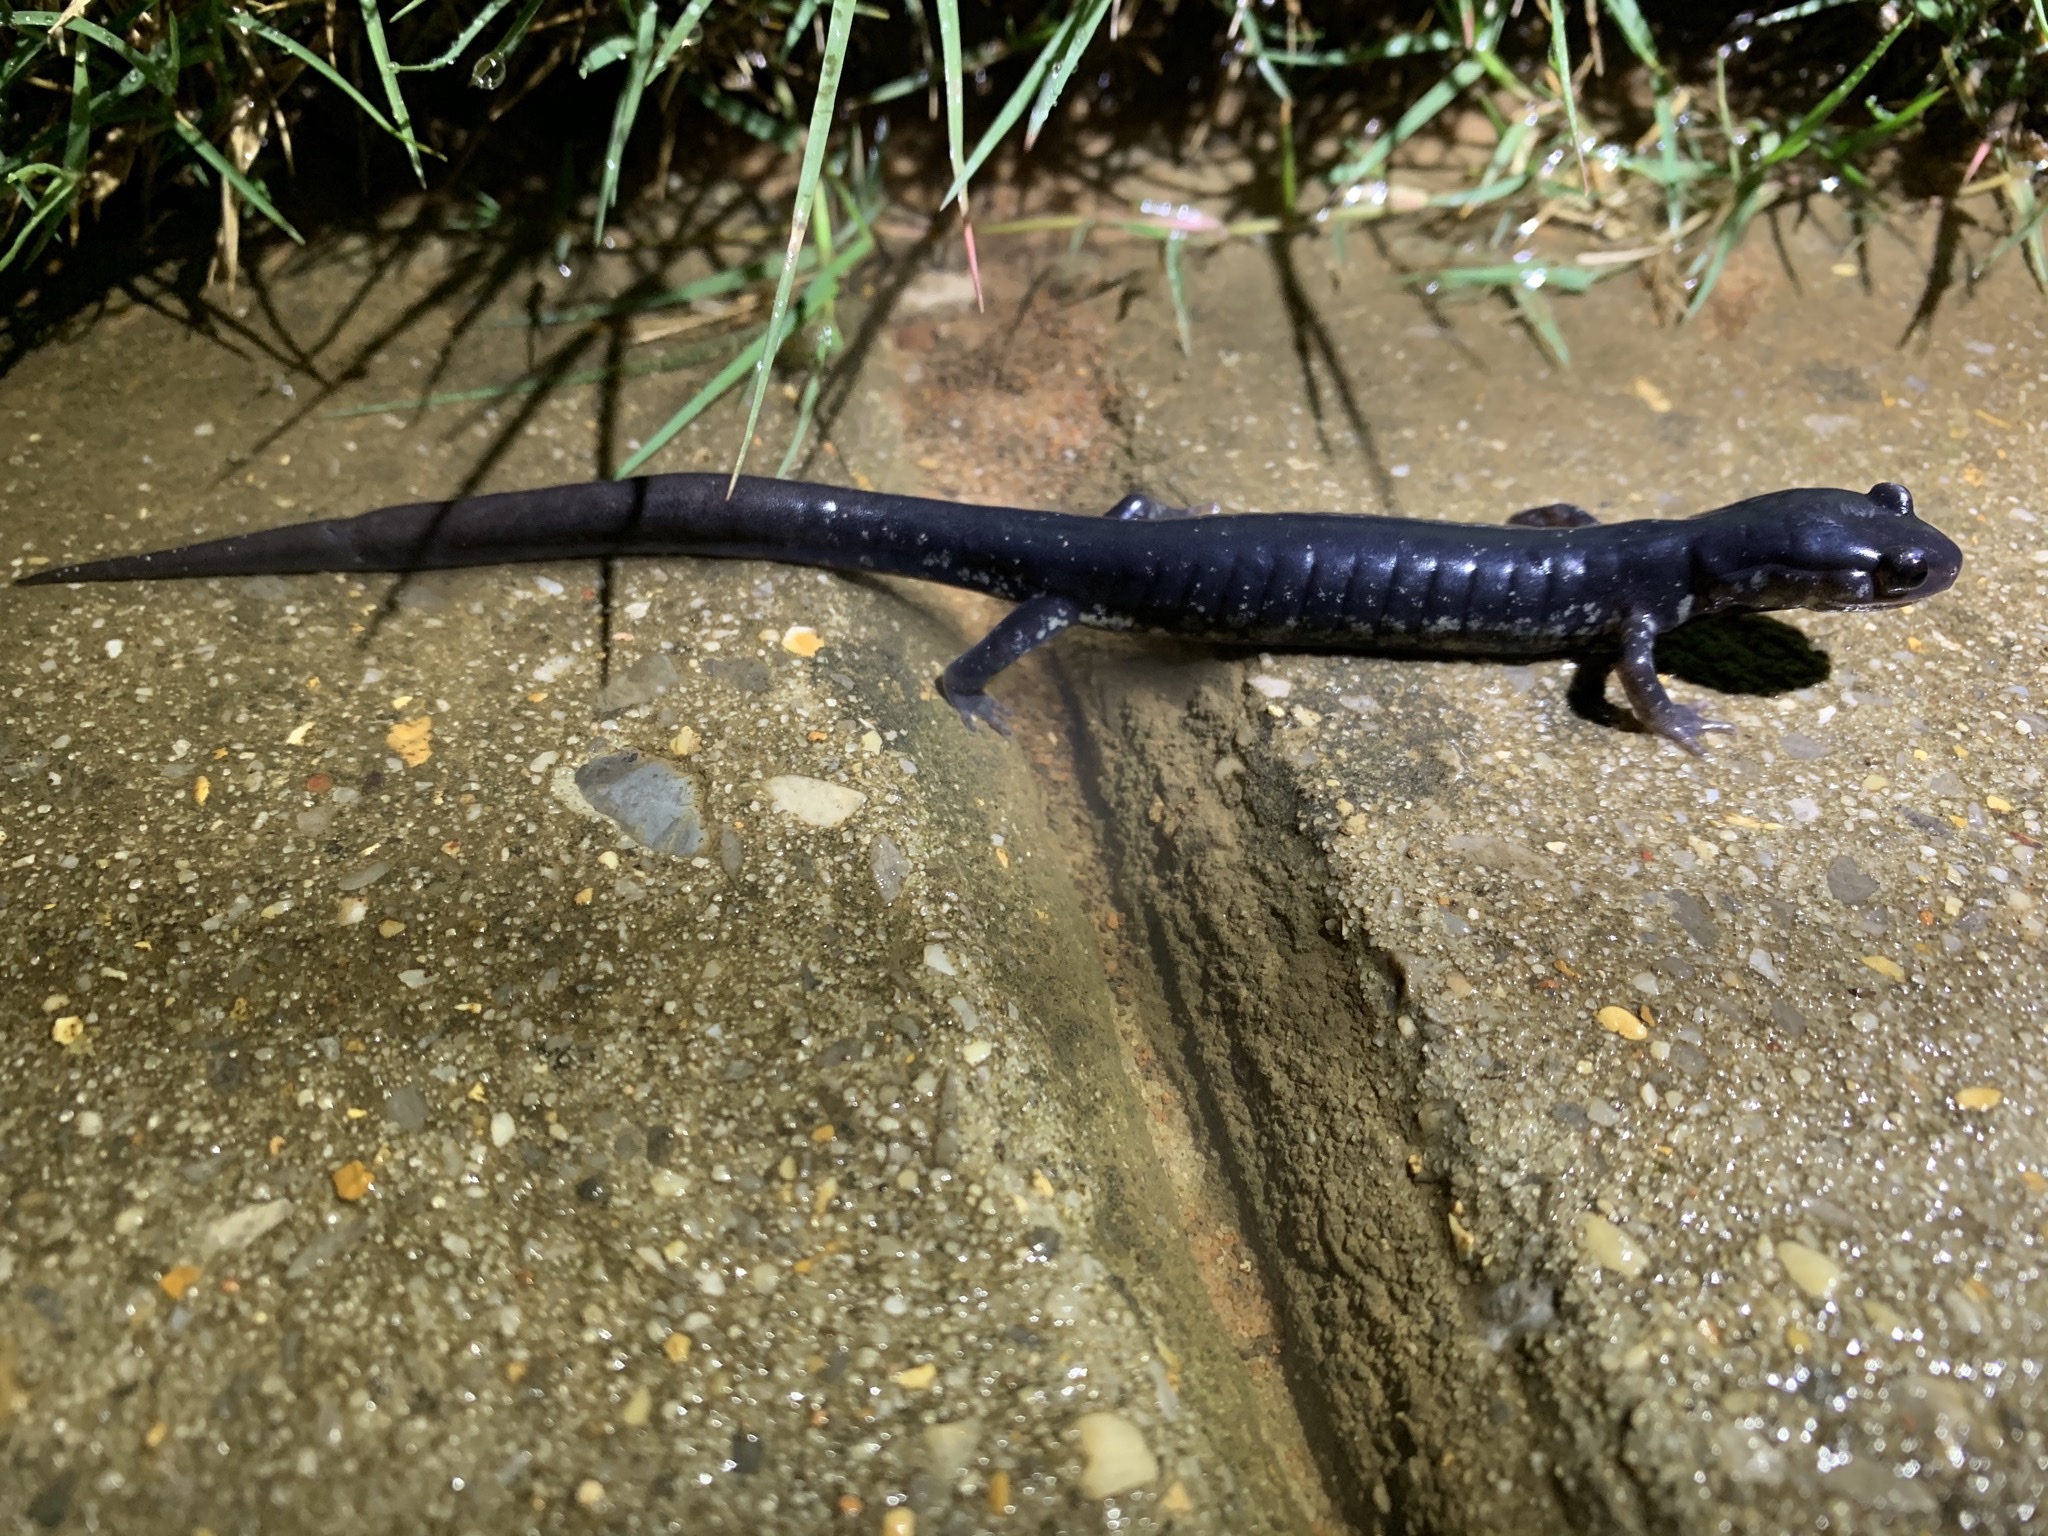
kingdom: Animalia
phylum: Chordata
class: Amphibia
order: Caudata
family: Plethodontidae
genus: Plethodon
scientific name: Plethodon glutinosus
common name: Northern slimy salamander
